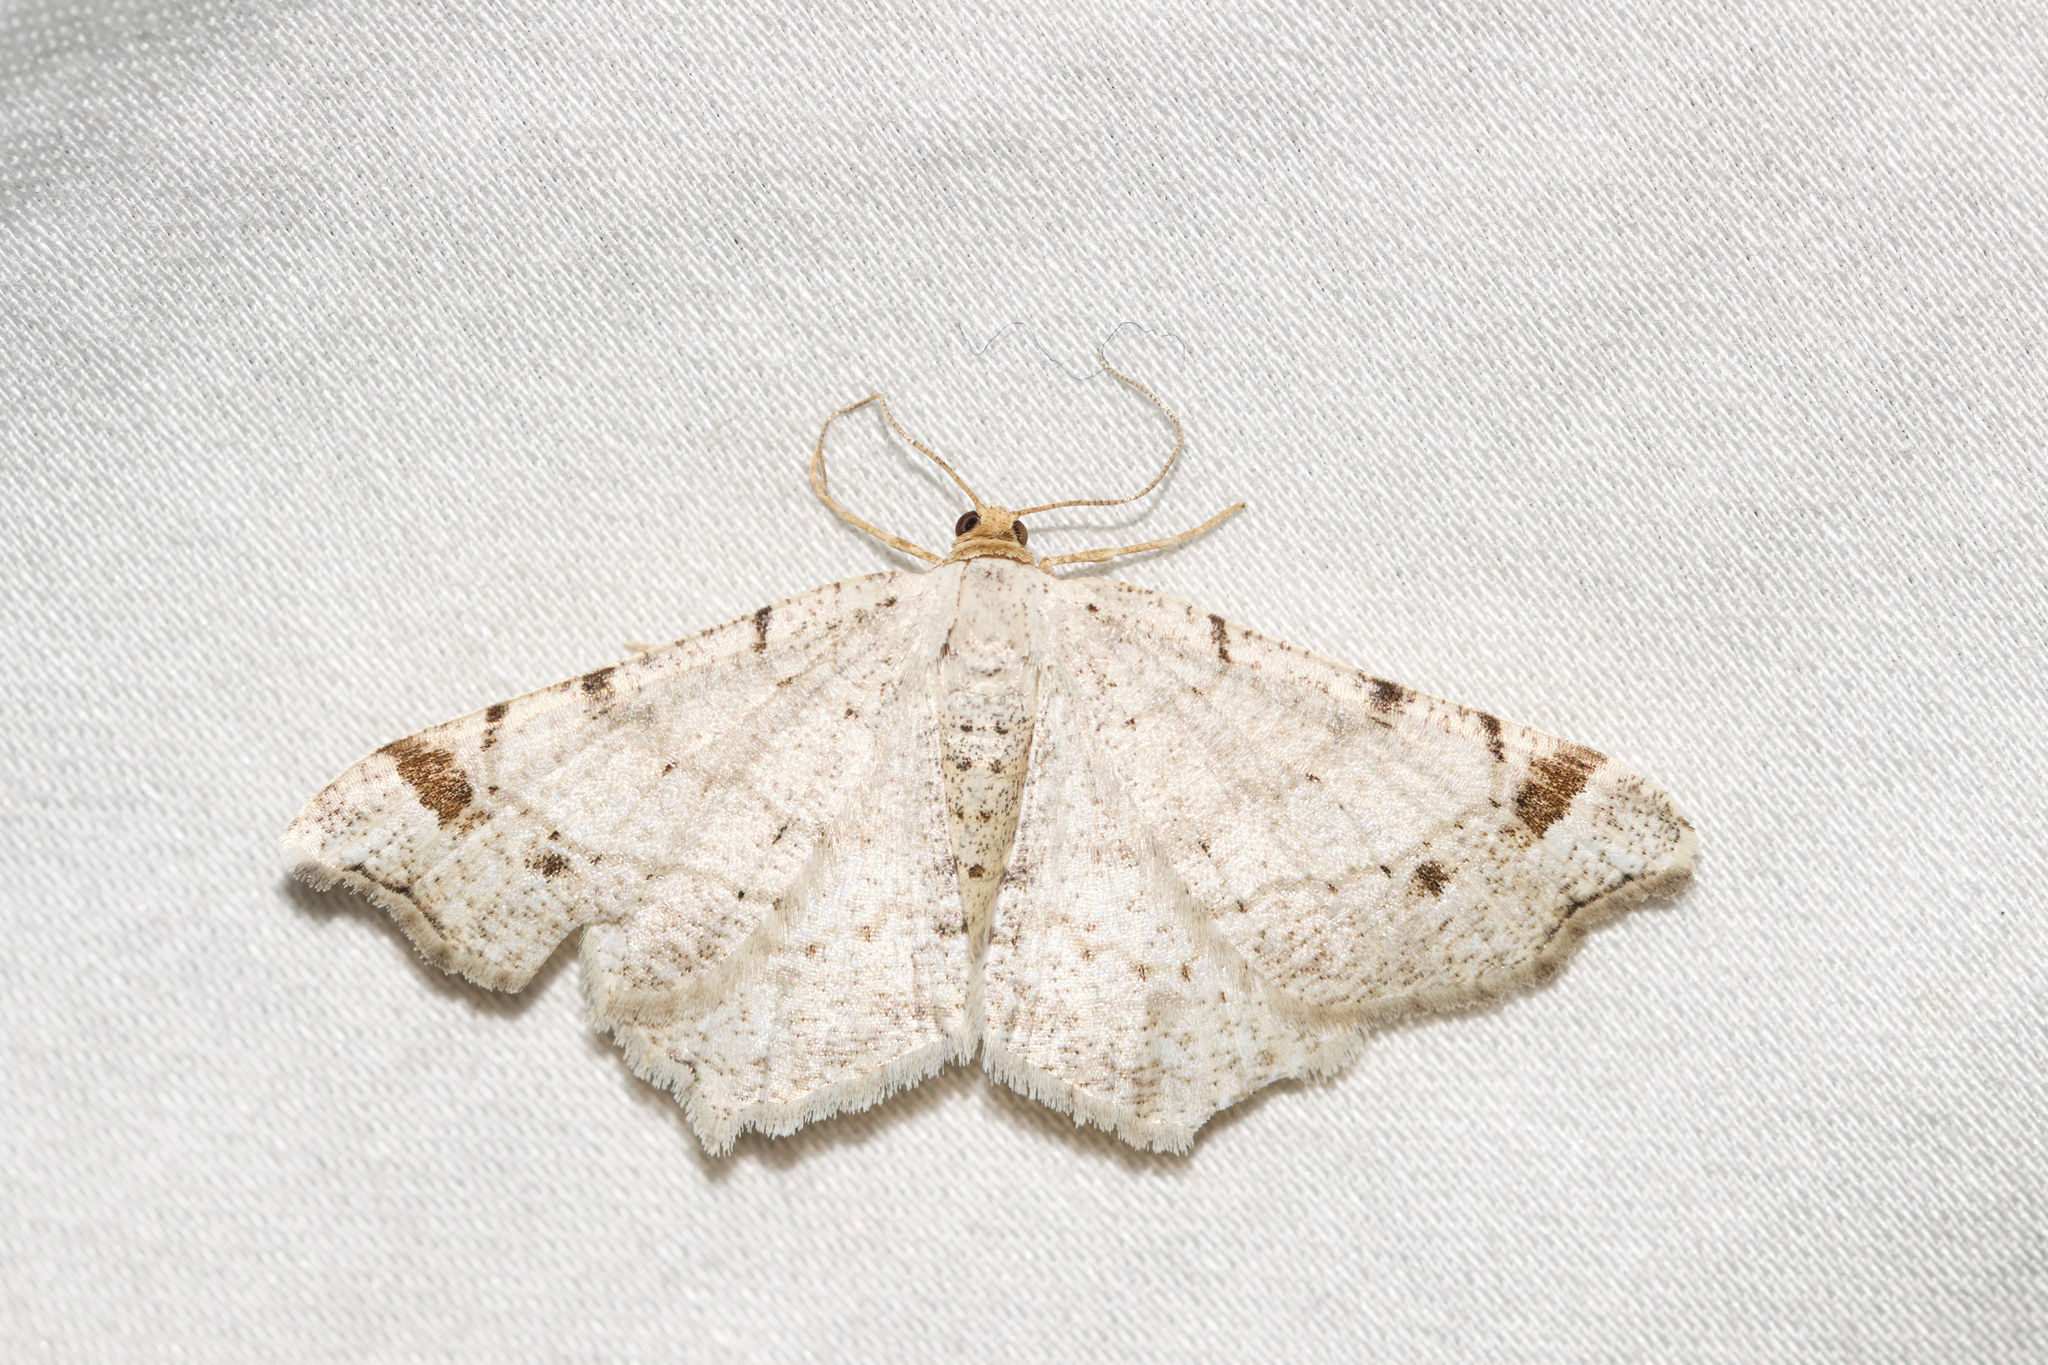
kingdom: Animalia
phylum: Arthropoda
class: Insecta
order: Lepidoptera
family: Geometridae
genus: Macaria
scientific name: Macaria bisignata
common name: Red-headed inchworm
